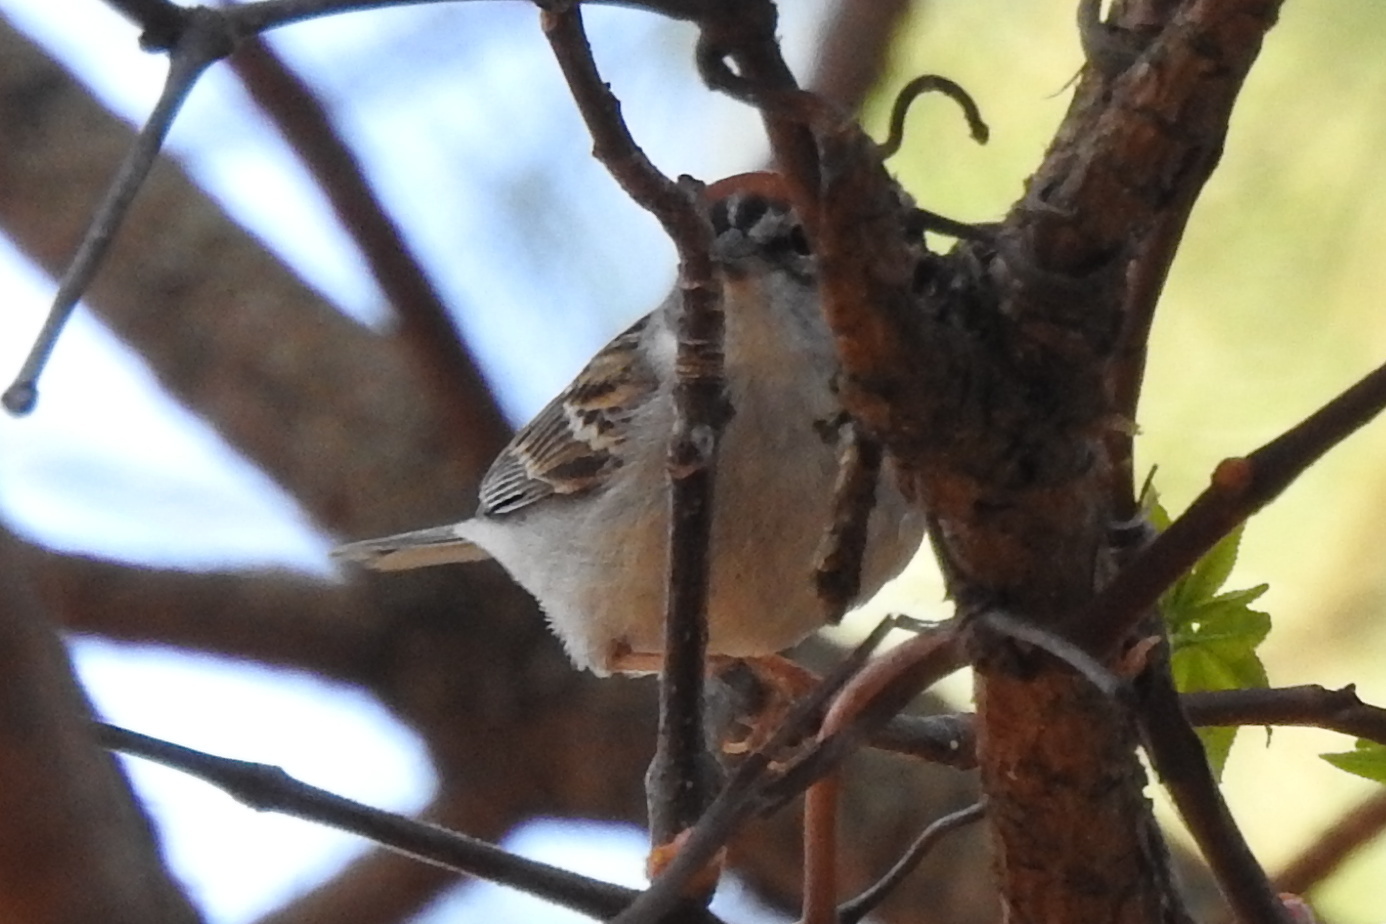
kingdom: Animalia
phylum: Chordata
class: Aves
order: Passeriformes
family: Passerellidae
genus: Spizella
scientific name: Spizella passerina
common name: Chipping sparrow
